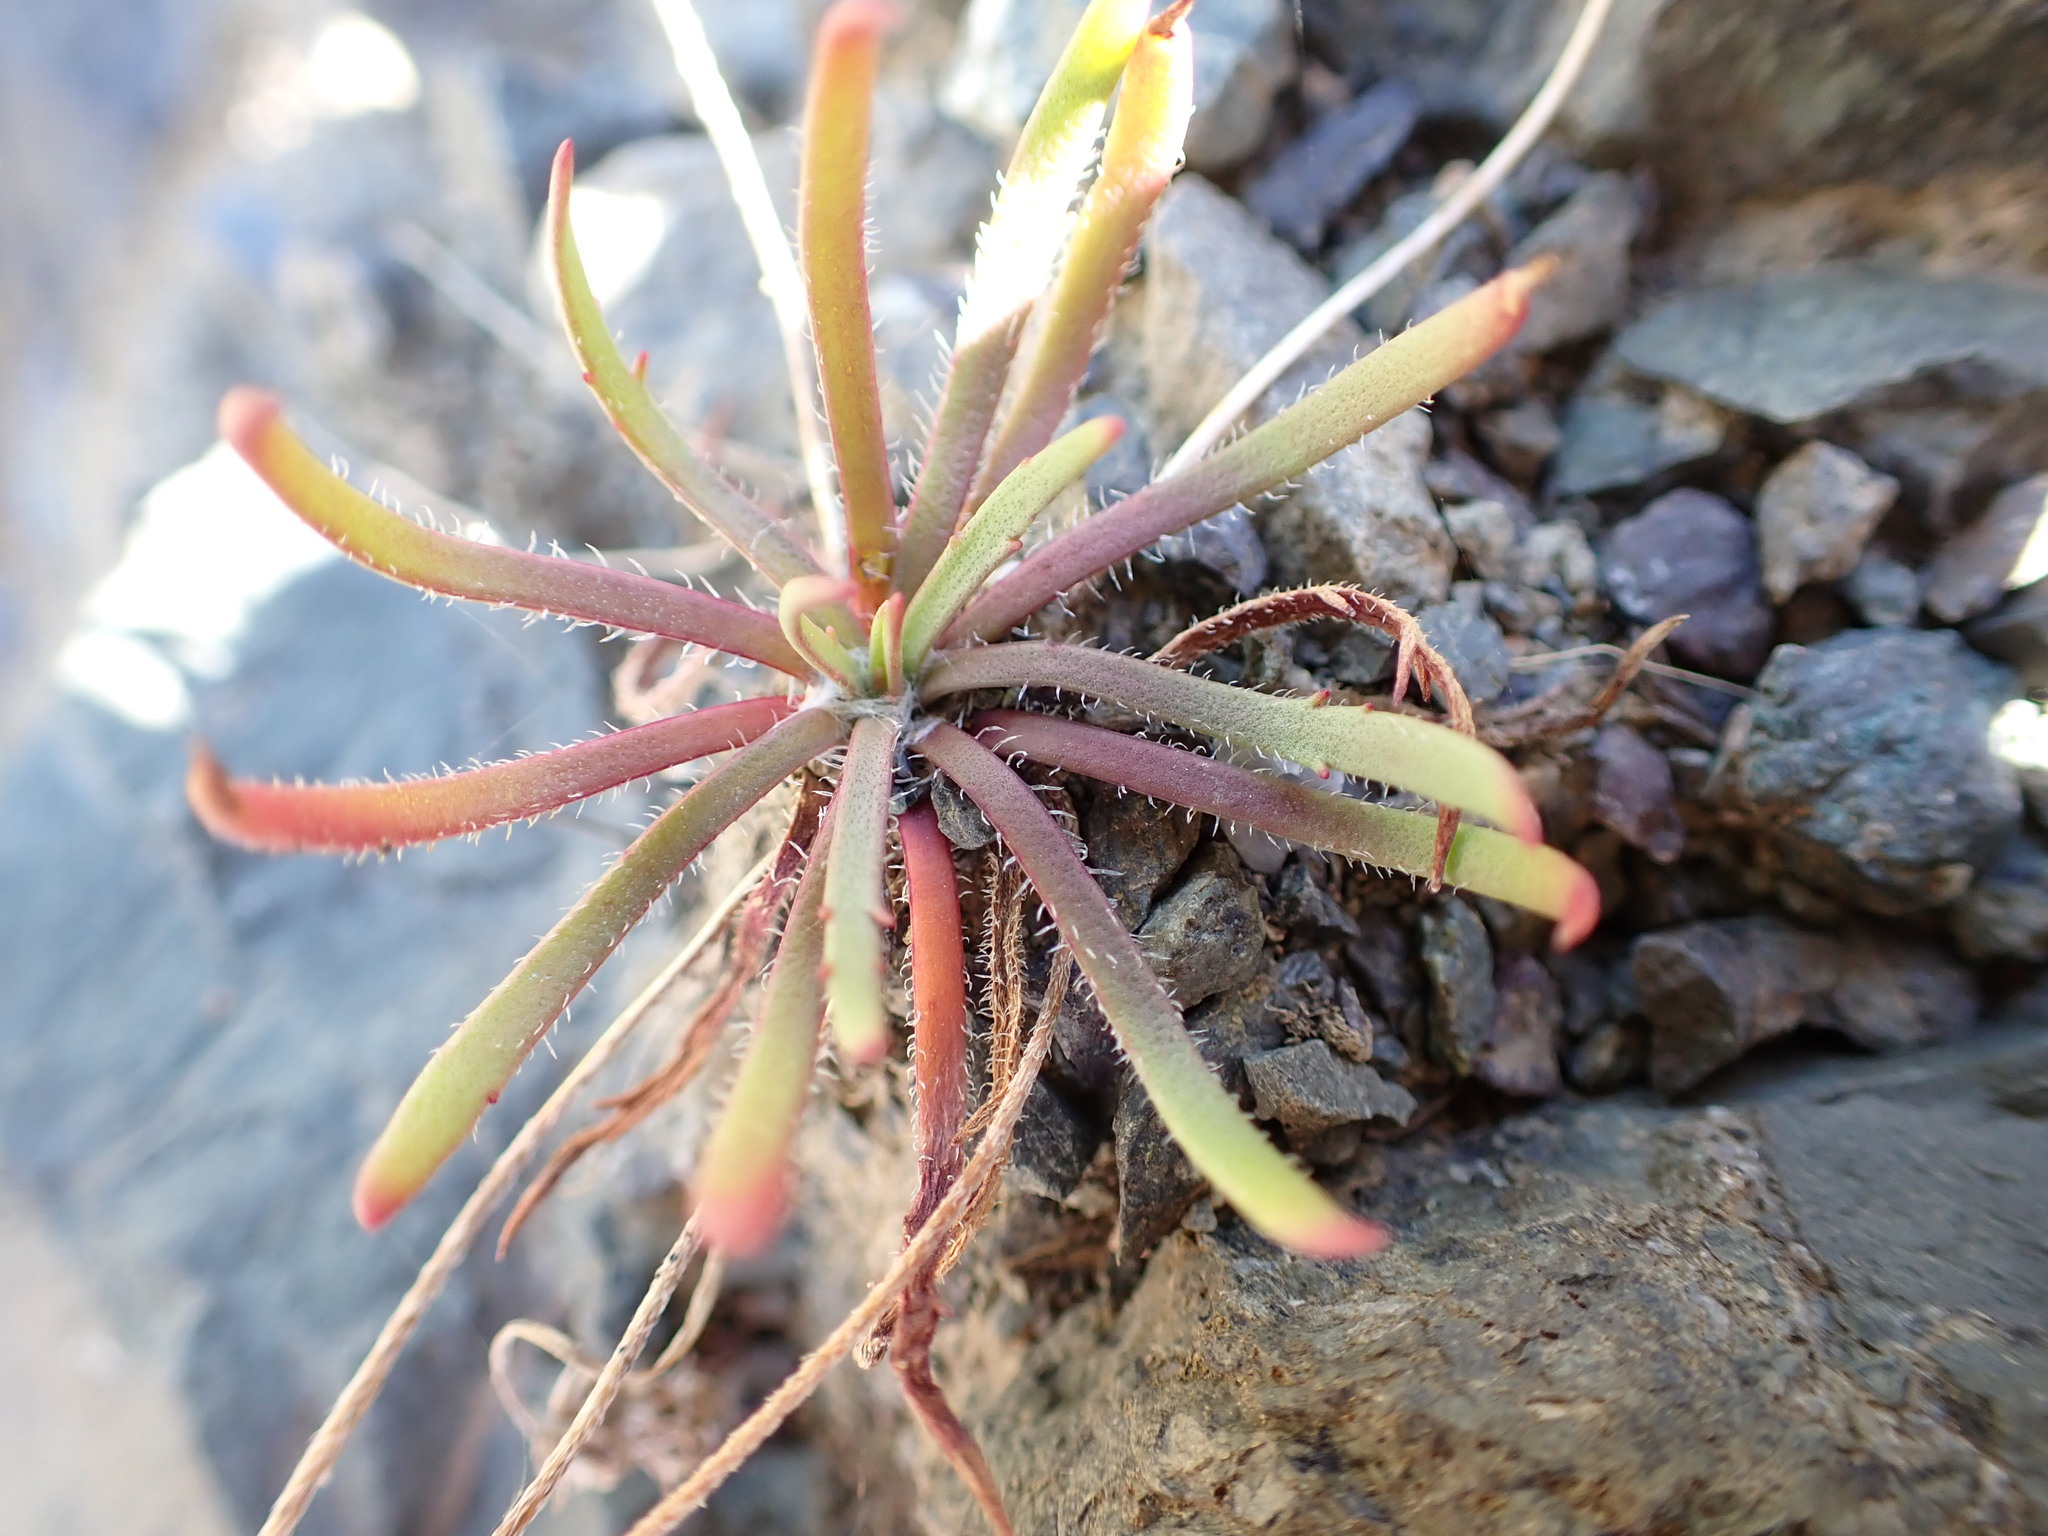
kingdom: Plantae
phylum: Tracheophyta
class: Magnoliopsida
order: Lamiales
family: Plantaginaceae
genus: Plantago
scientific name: Plantago coronopus
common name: Buck's-horn plantain
